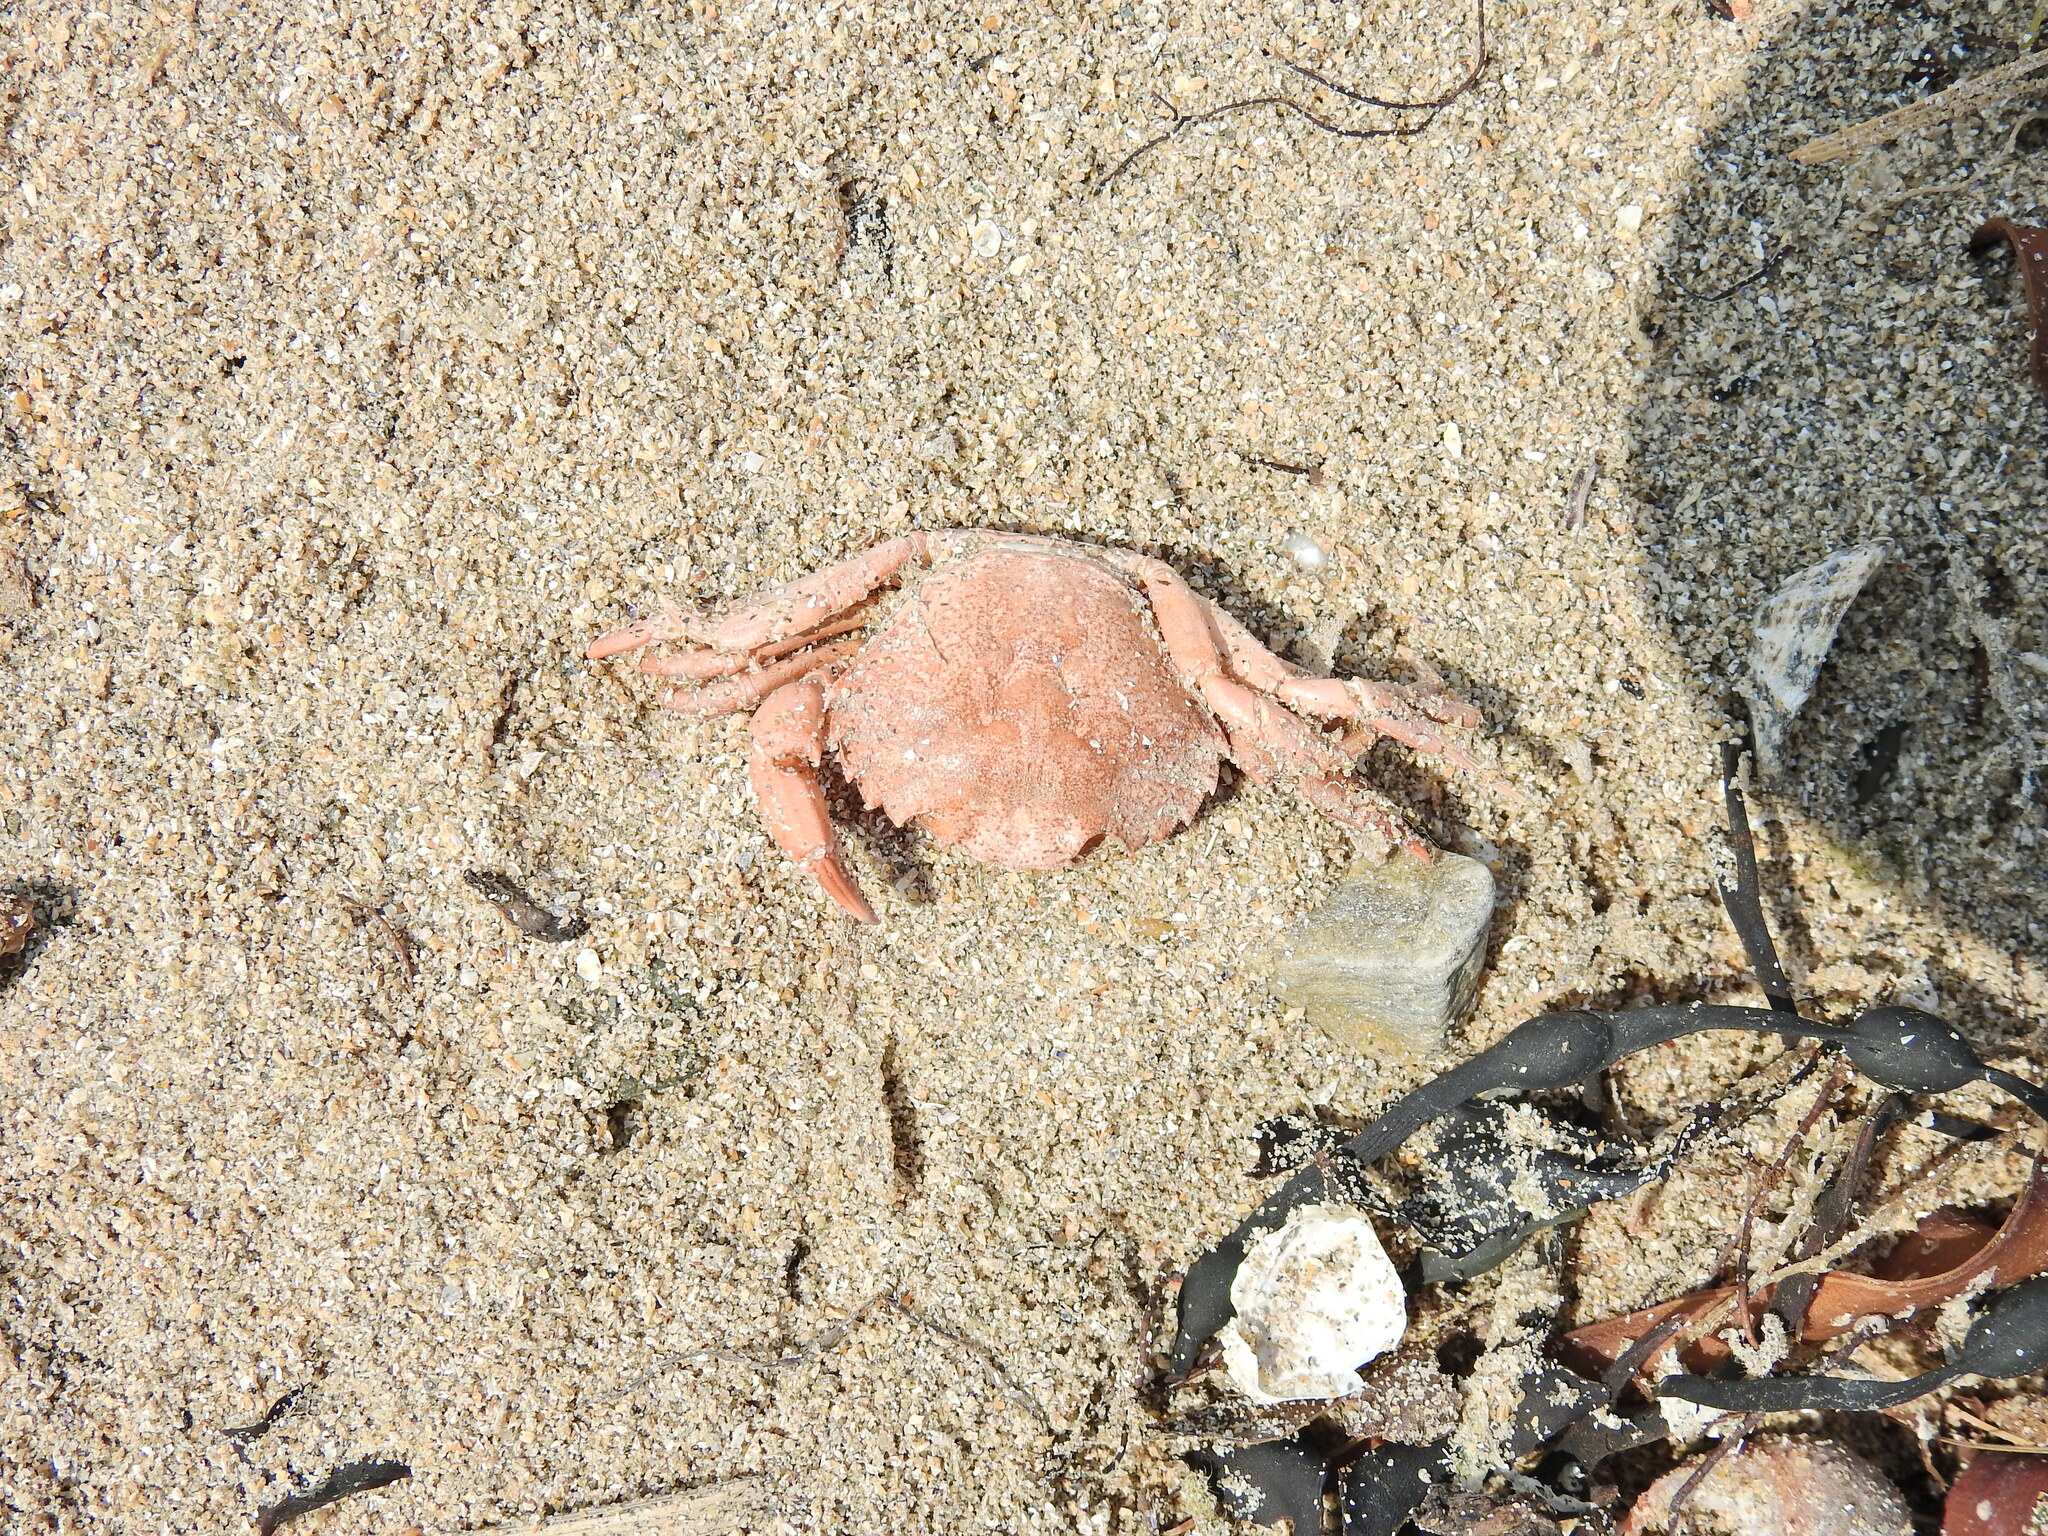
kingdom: Animalia
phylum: Arthropoda
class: Malacostraca
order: Decapoda
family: Carcinidae
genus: Carcinus
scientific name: Carcinus maenas
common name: European green crab
